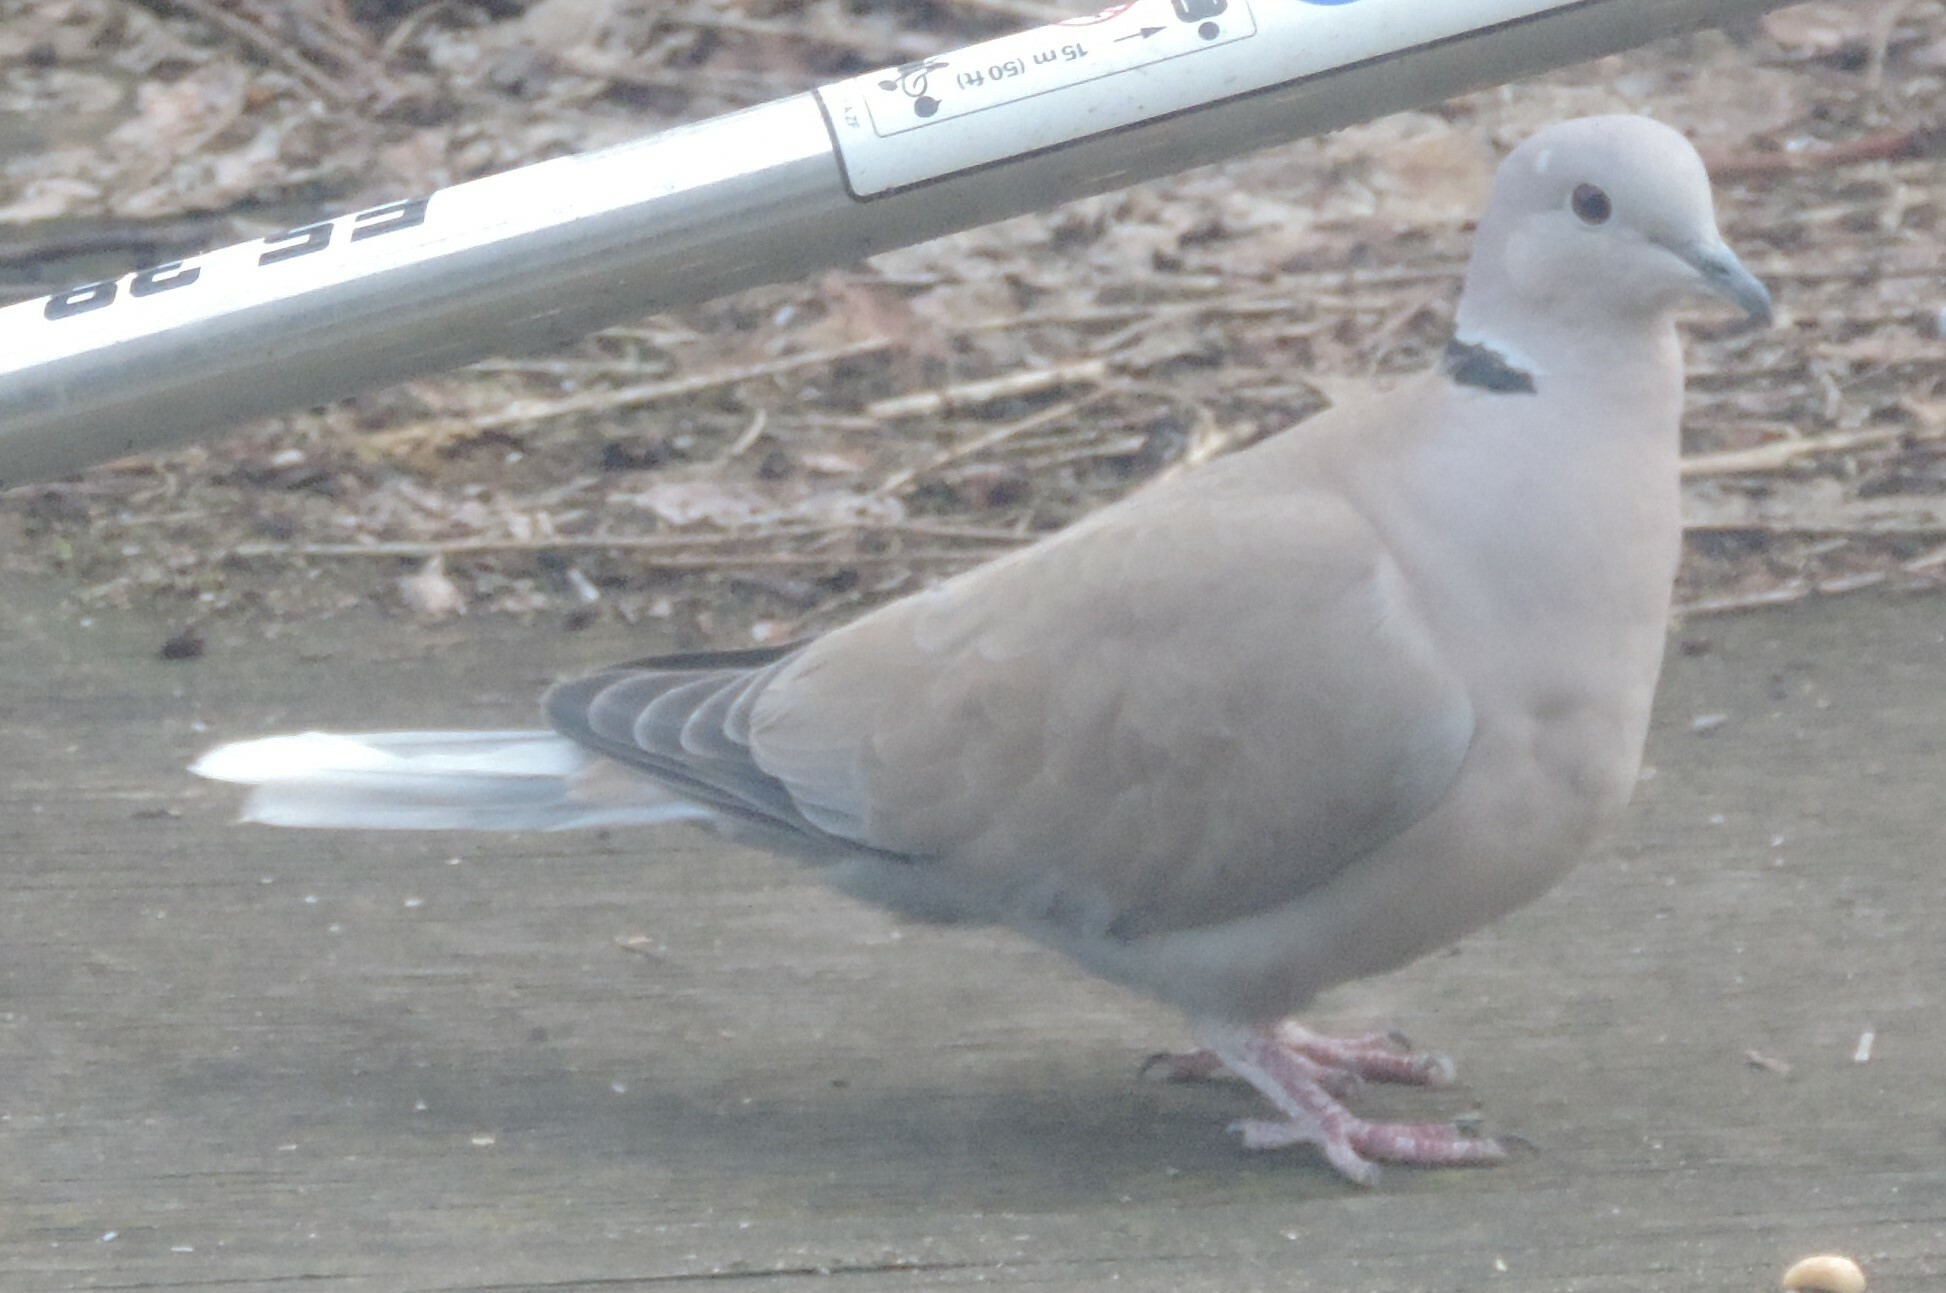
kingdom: Animalia
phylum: Chordata
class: Aves
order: Columbiformes
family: Columbidae
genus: Streptopelia
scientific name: Streptopelia decaocto
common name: Eurasian collared dove
